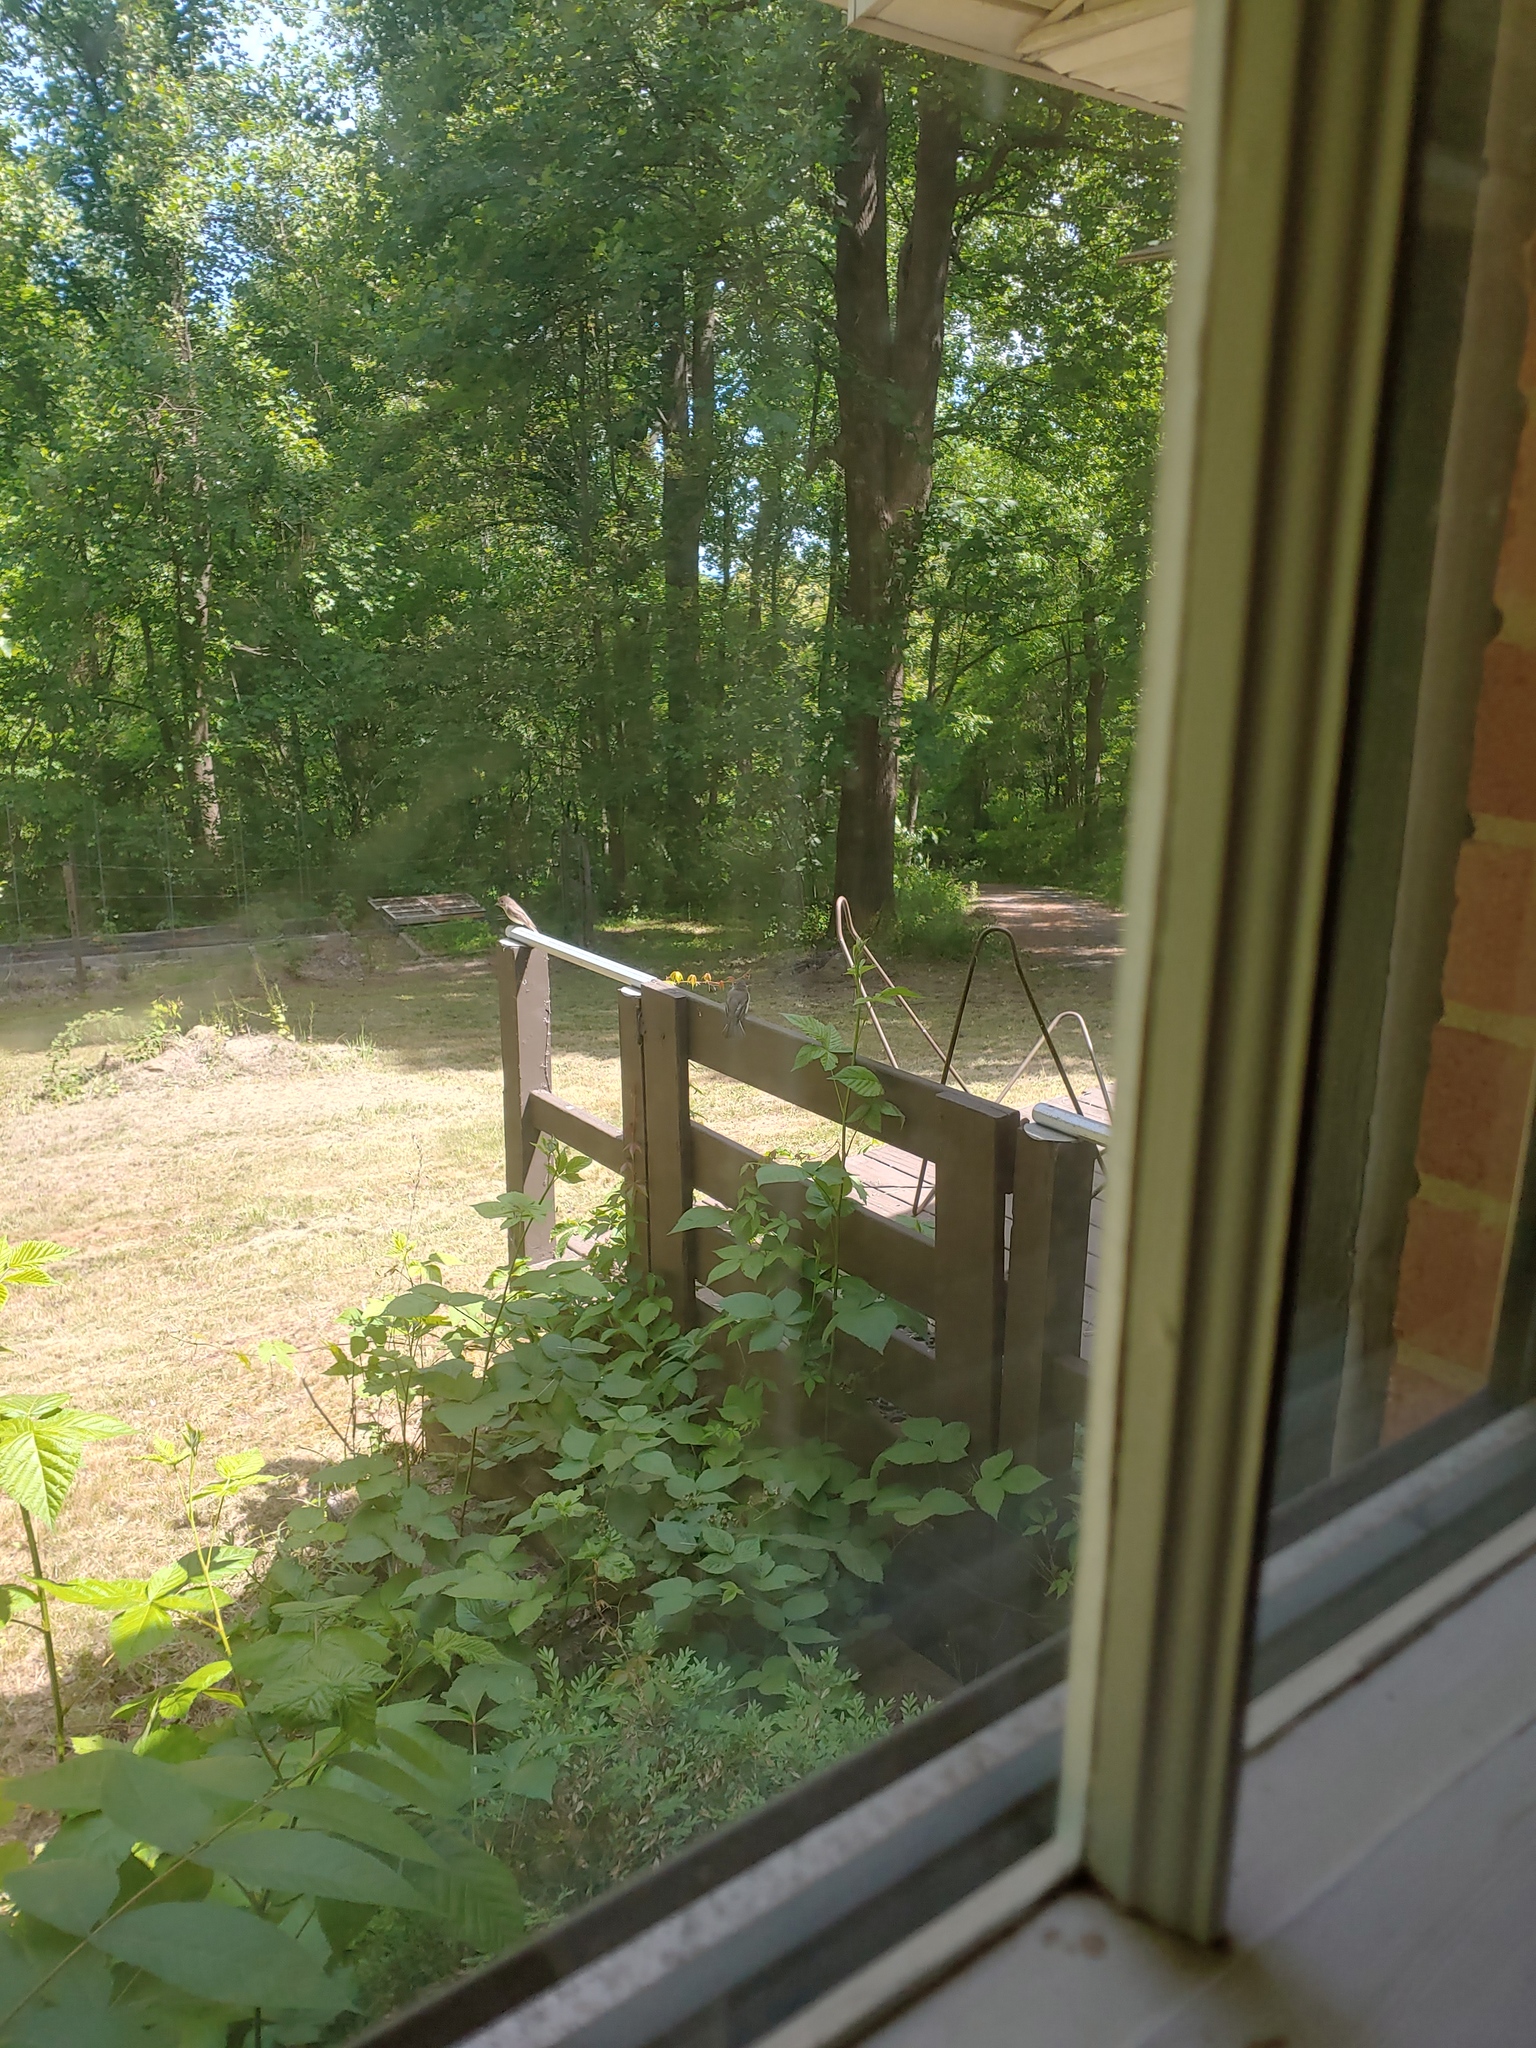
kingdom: Animalia
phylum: Chordata
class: Aves
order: Passeriformes
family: Tyrannidae
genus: Sayornis
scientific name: Sayornis phoebe
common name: Eastern phoebe
